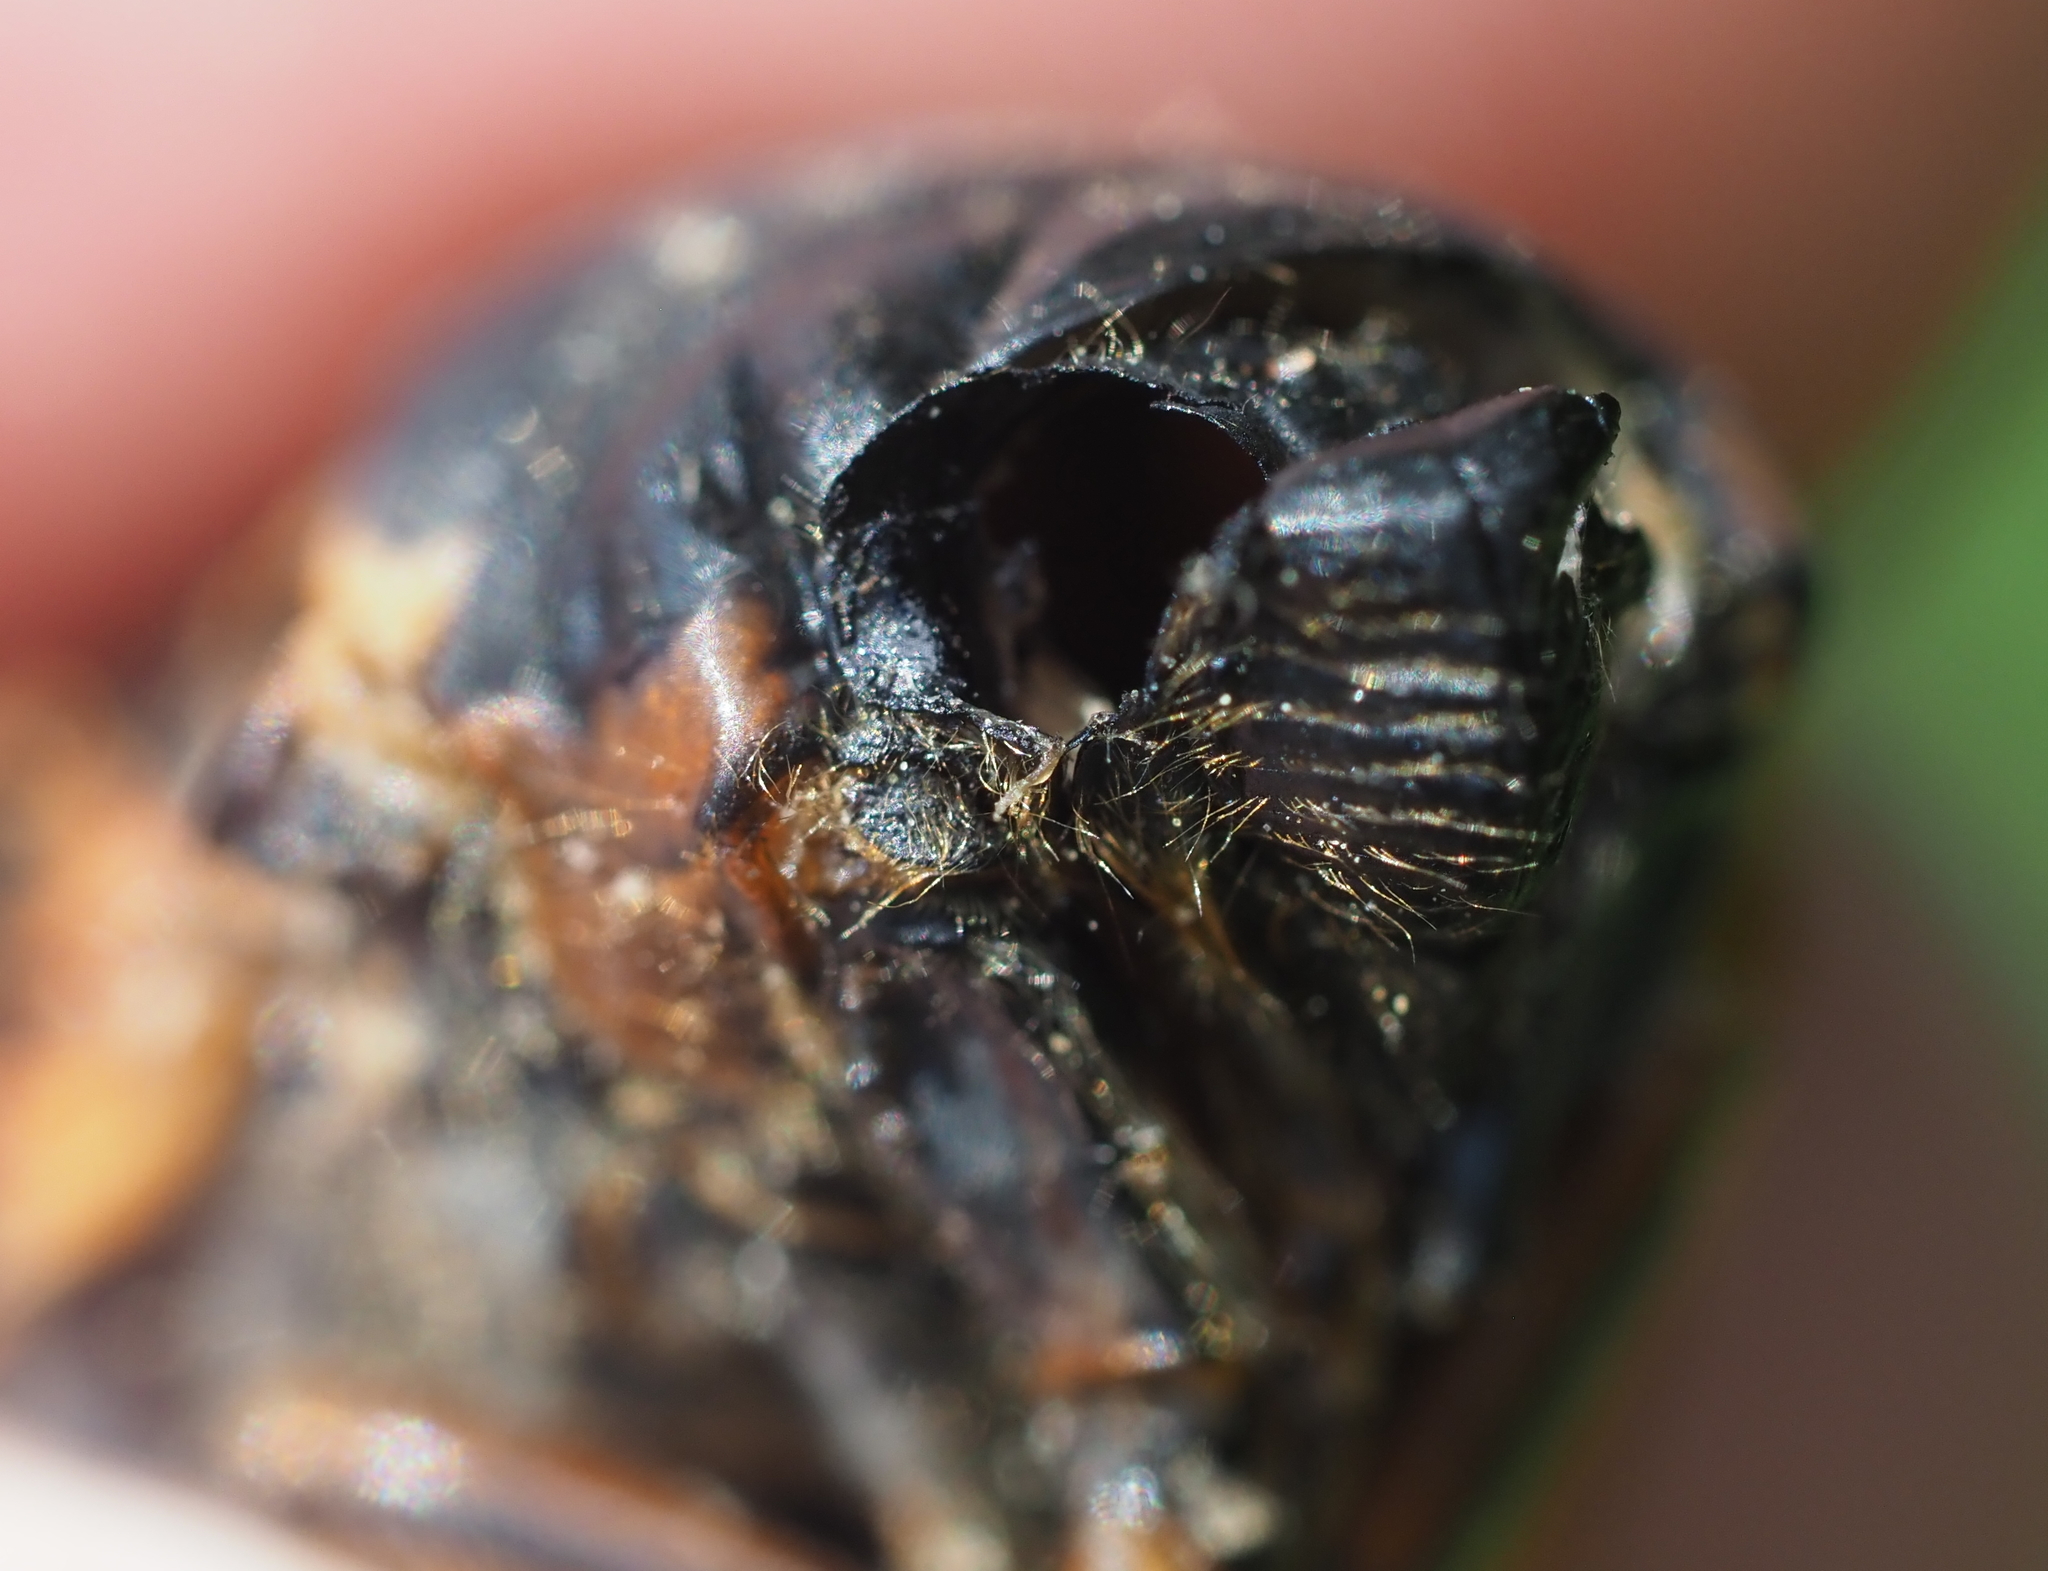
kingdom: Animalia
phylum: Arthropoda
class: Insecta
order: Hemiptera
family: Cicadidae
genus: Magicicada
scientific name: Magicicada septendecim
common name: Periodical cicada
